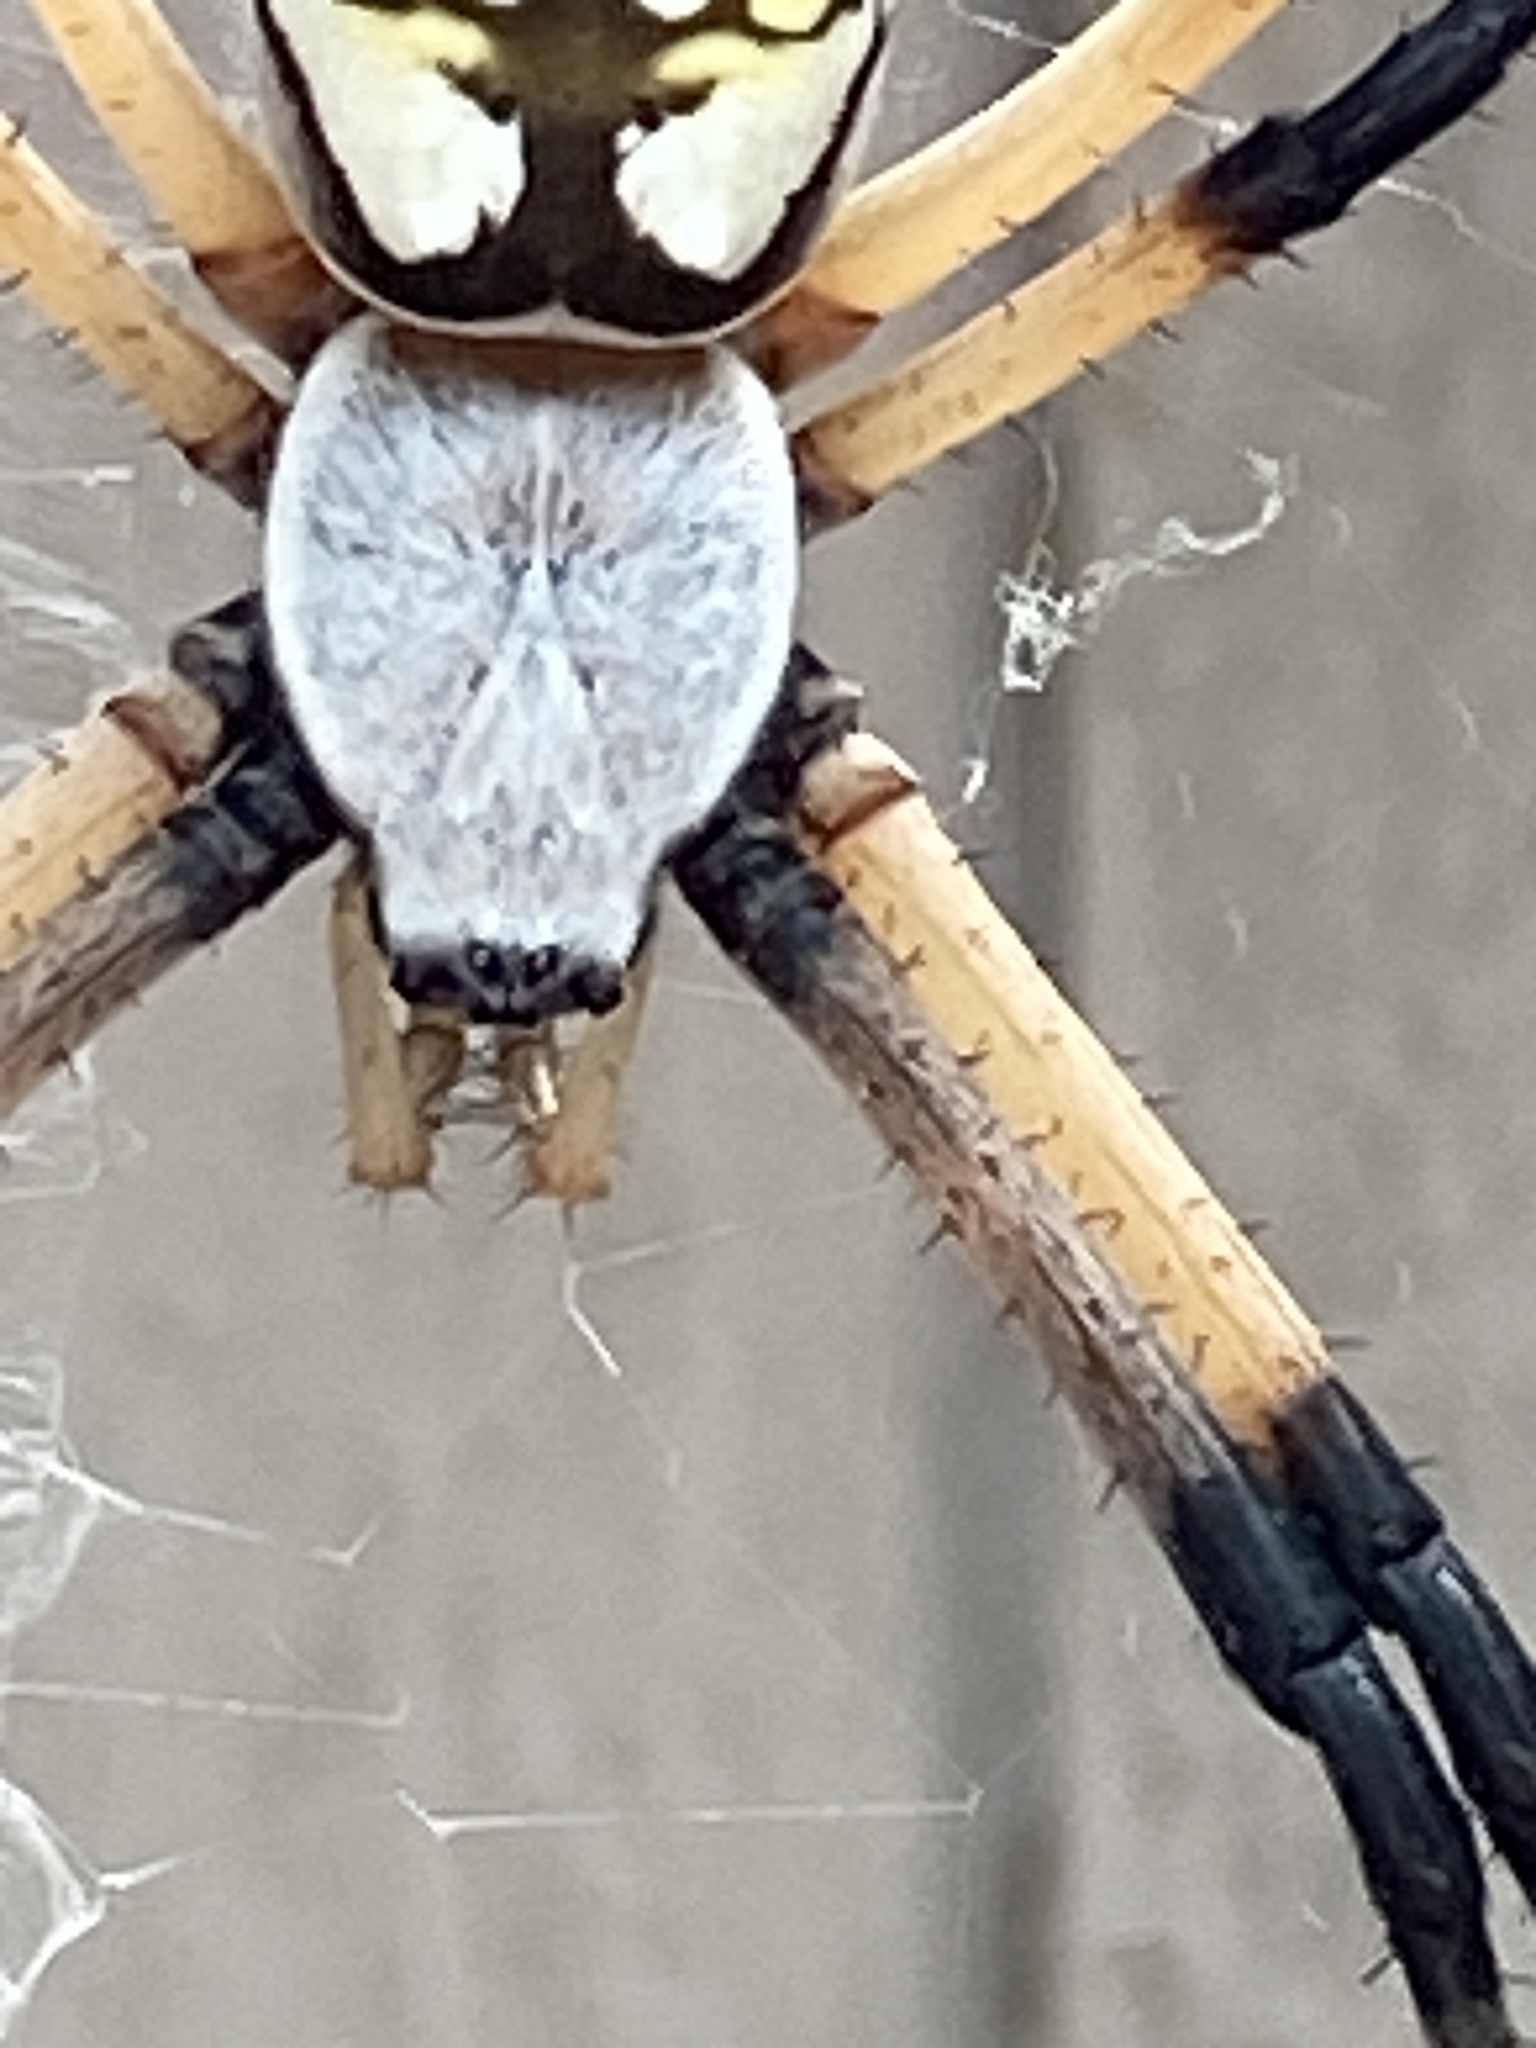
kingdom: Animalia
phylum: Arthropoda
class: Arachnida
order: Araneae
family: Araneidae
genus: Argiope
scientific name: Argiope aurantia
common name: Orb weavers
